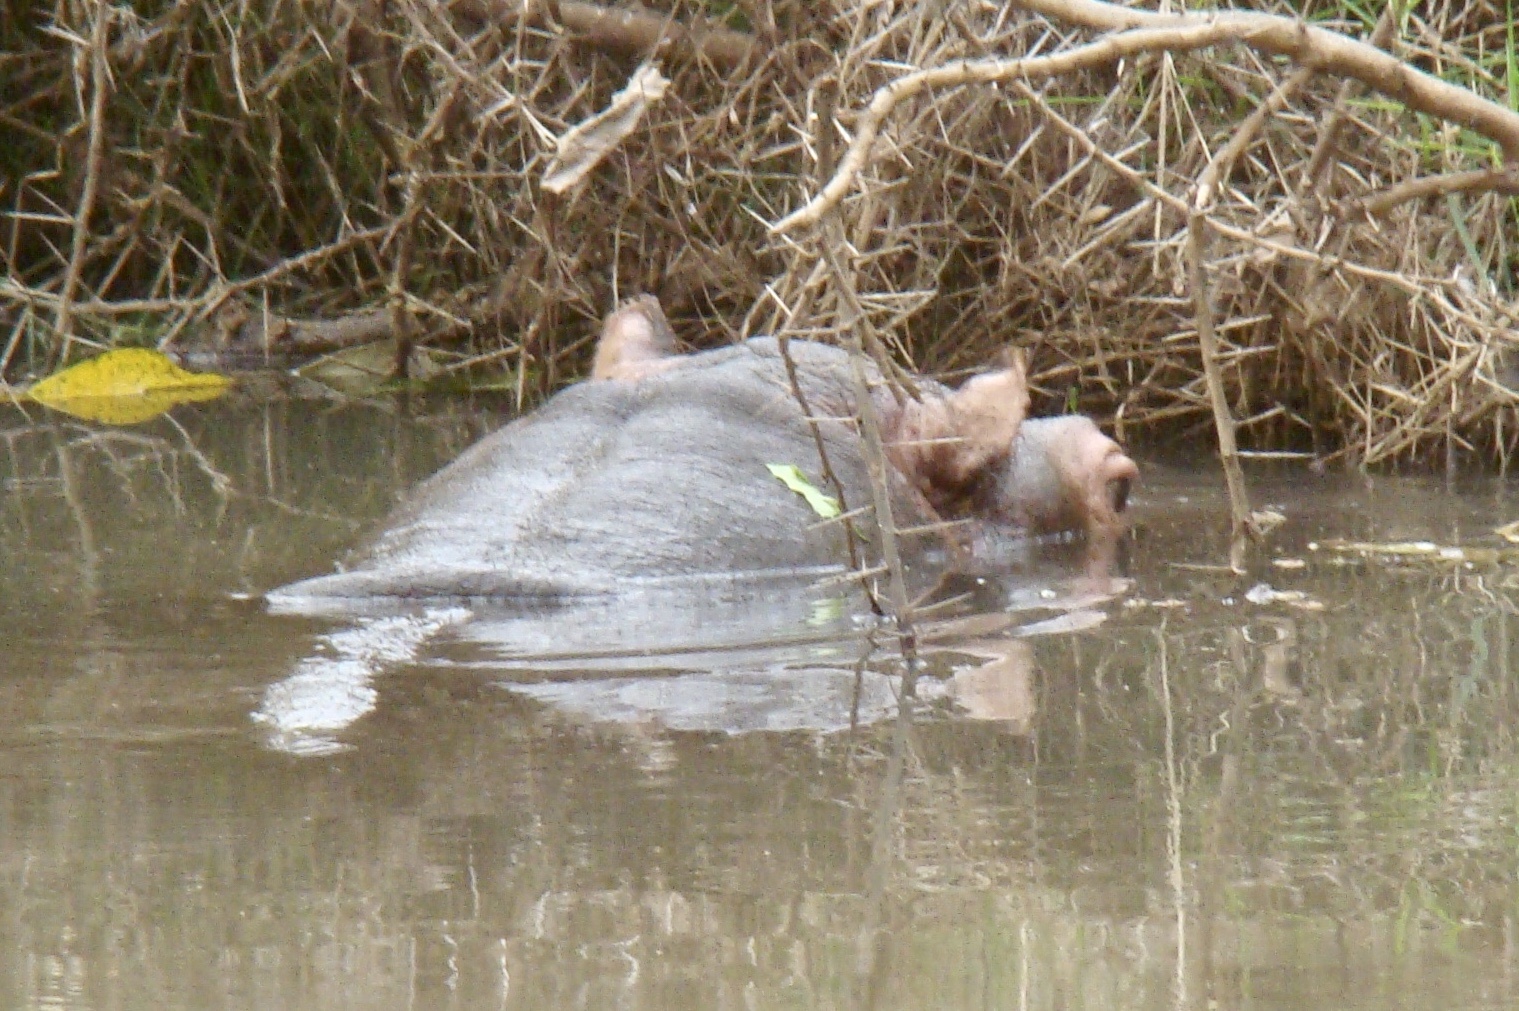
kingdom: Animalia
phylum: Chordata
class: Mammalia
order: Artiodactyla
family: Hippopotamidae
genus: Hippopotamus
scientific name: Hippopotamus amphibius
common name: Common hippopotamus
